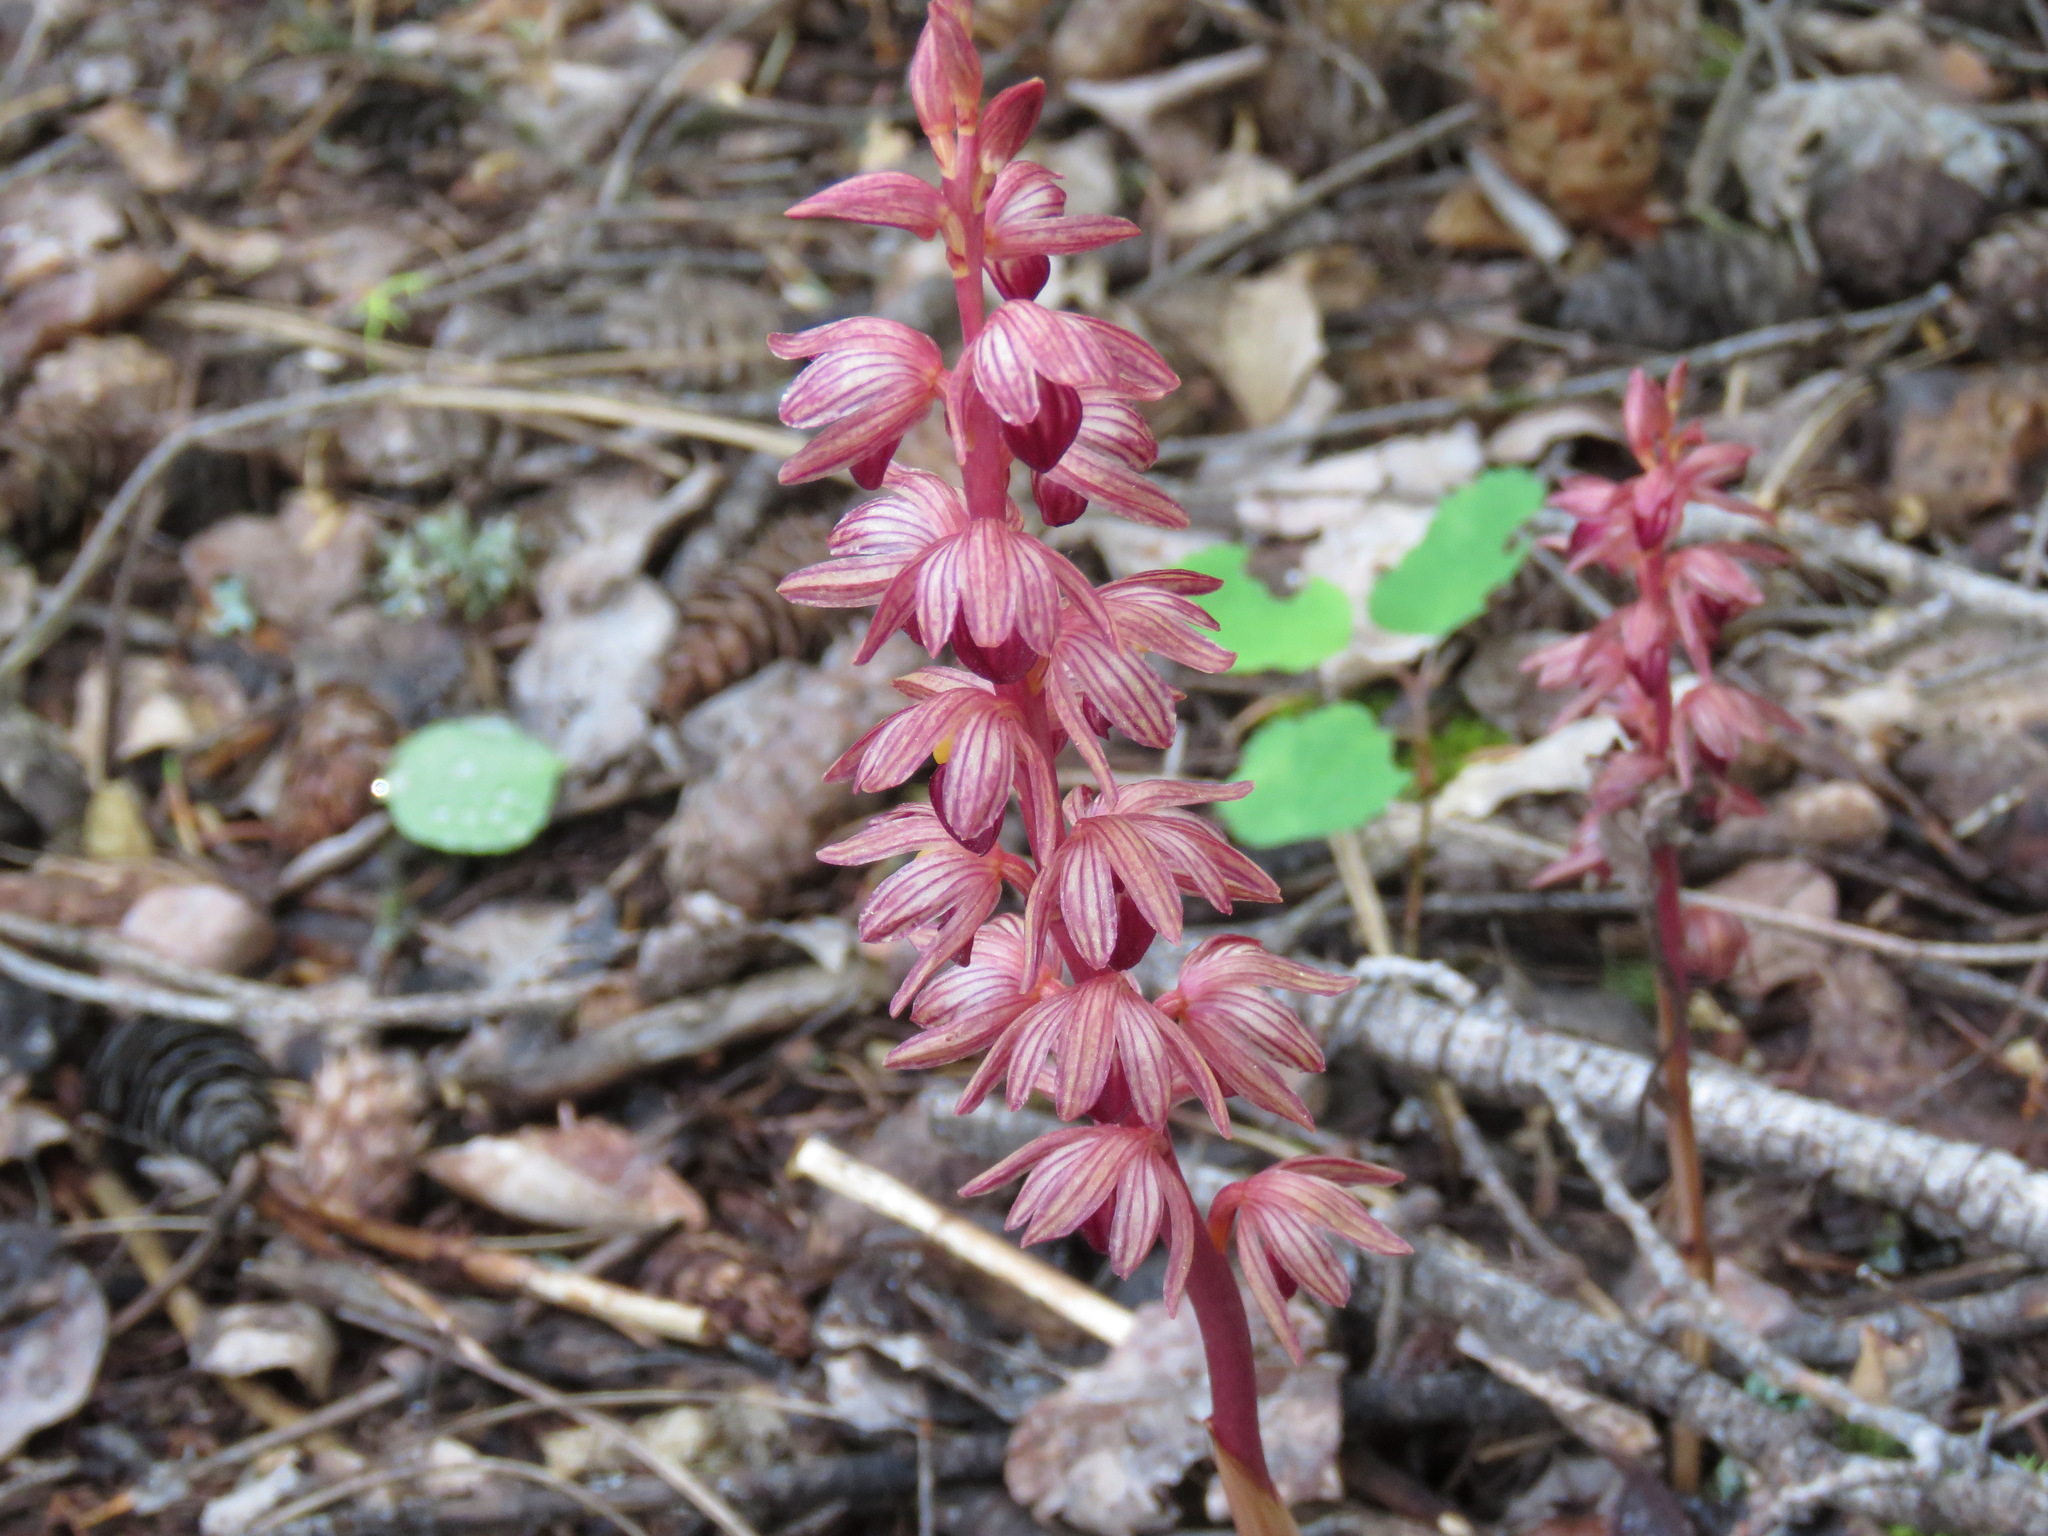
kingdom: Plantae
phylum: Tracheophyta
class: Liliopsida
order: Asparagales
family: Orchidaceae
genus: Corallorhiza
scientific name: Corallorhiza striata
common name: Hooded coralroot
